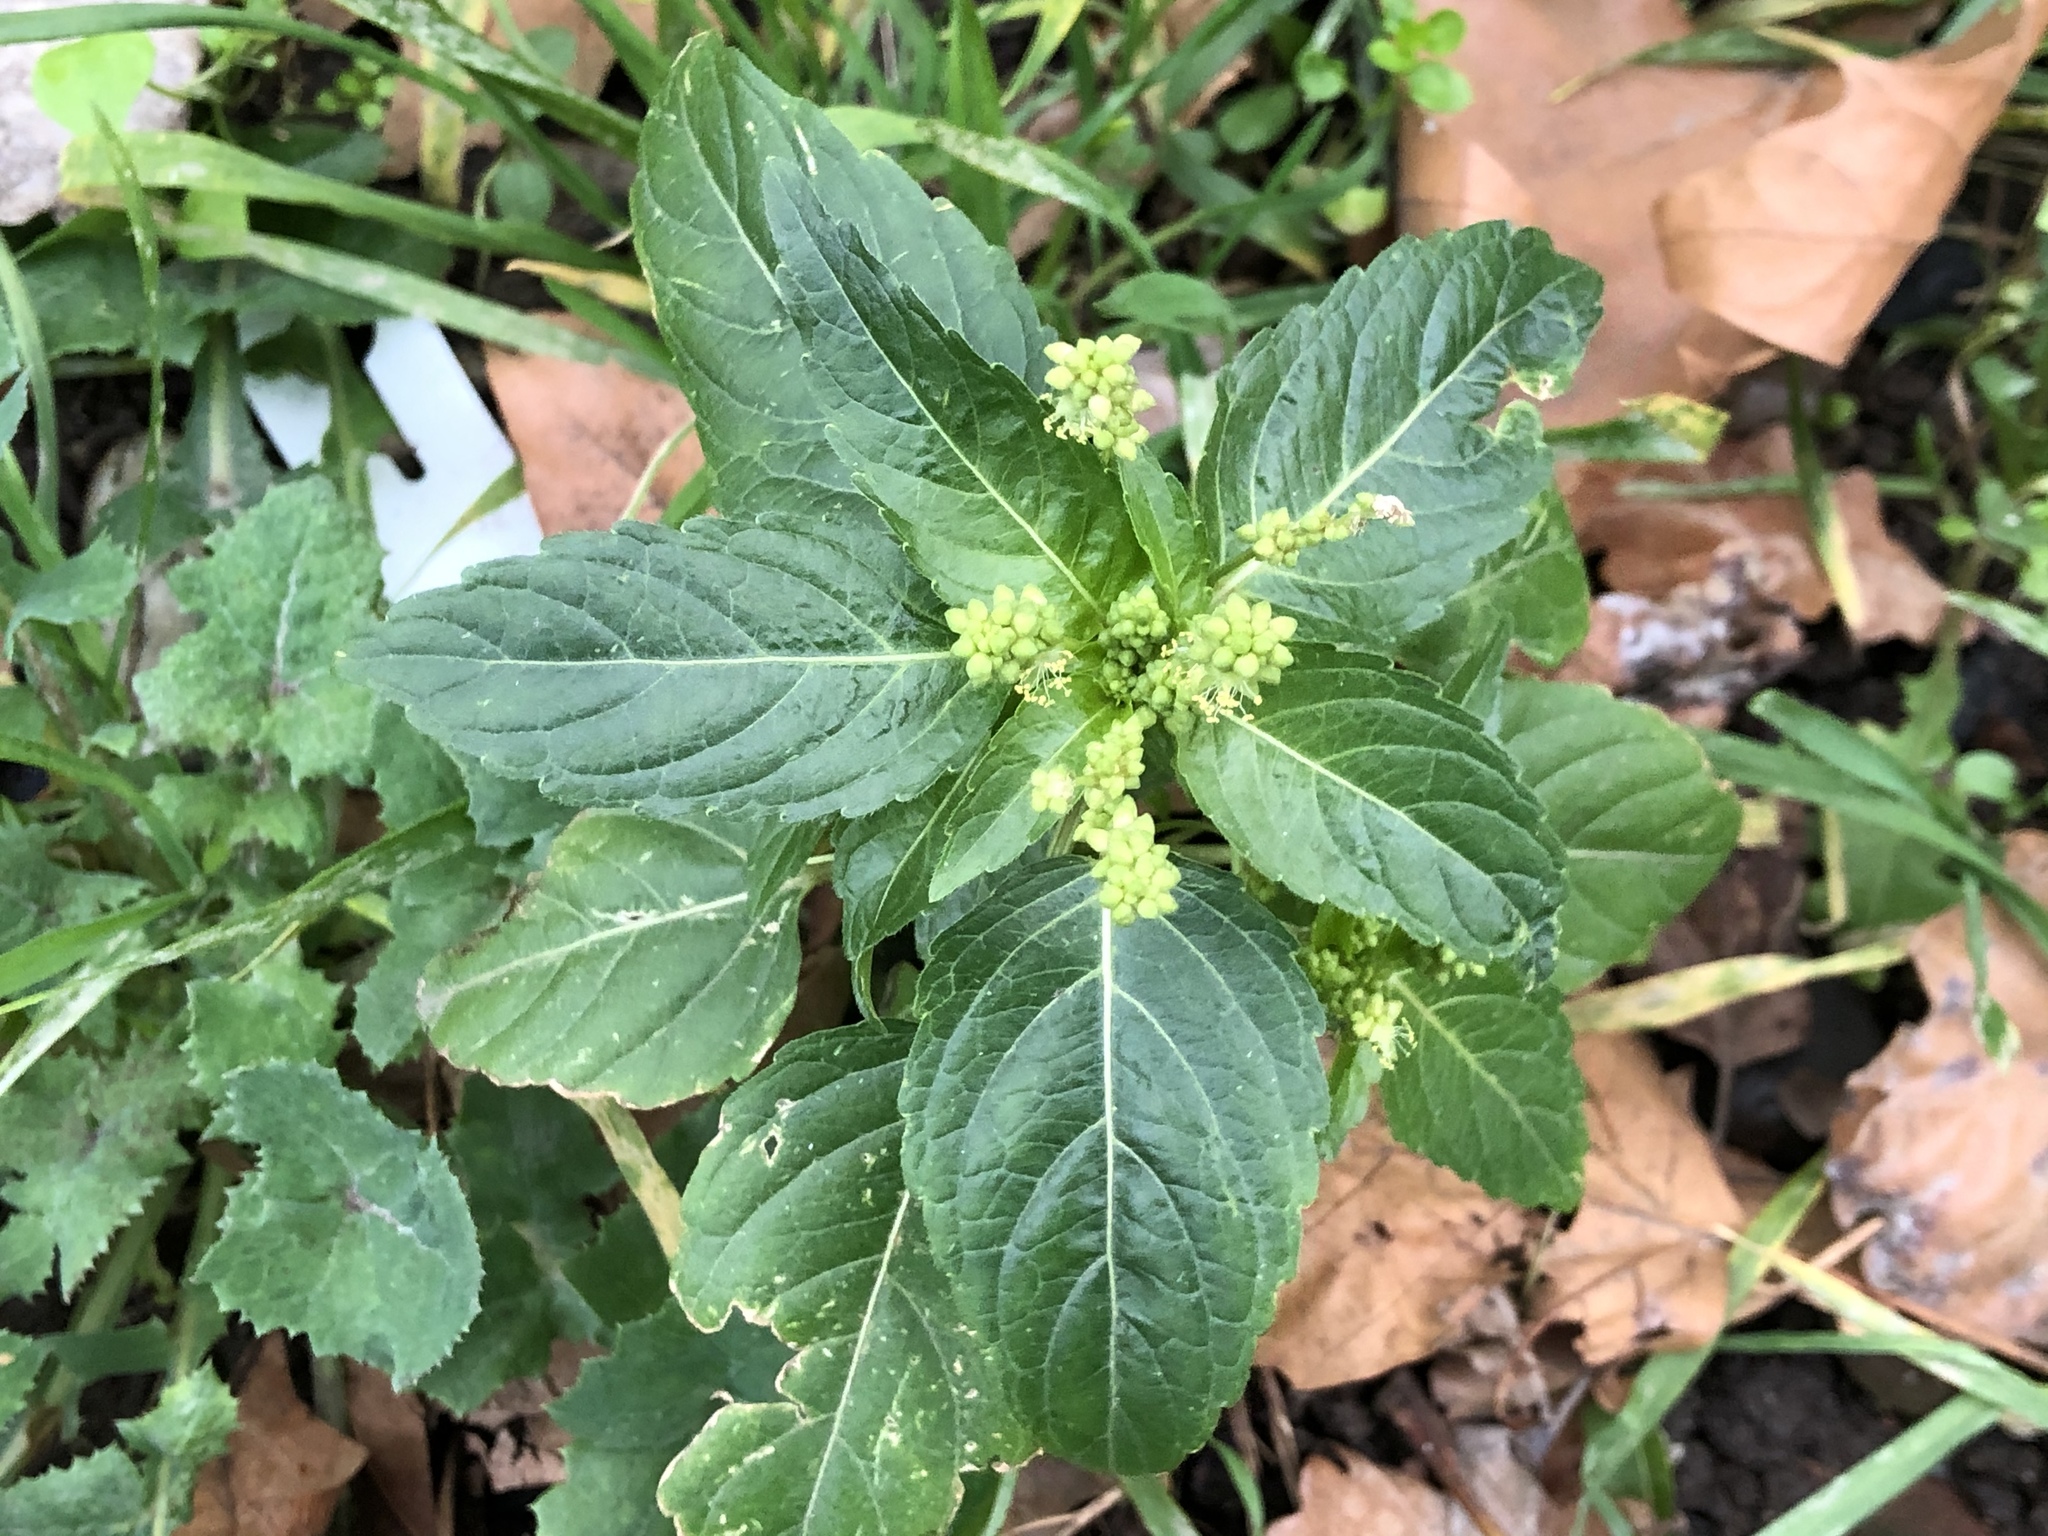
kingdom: Plantae
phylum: Tracheophyta
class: Magnoliopsida
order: Malpighiales
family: Euphorbiaceae
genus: Mercurialis
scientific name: Mercurialis annua
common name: Annual mercury
